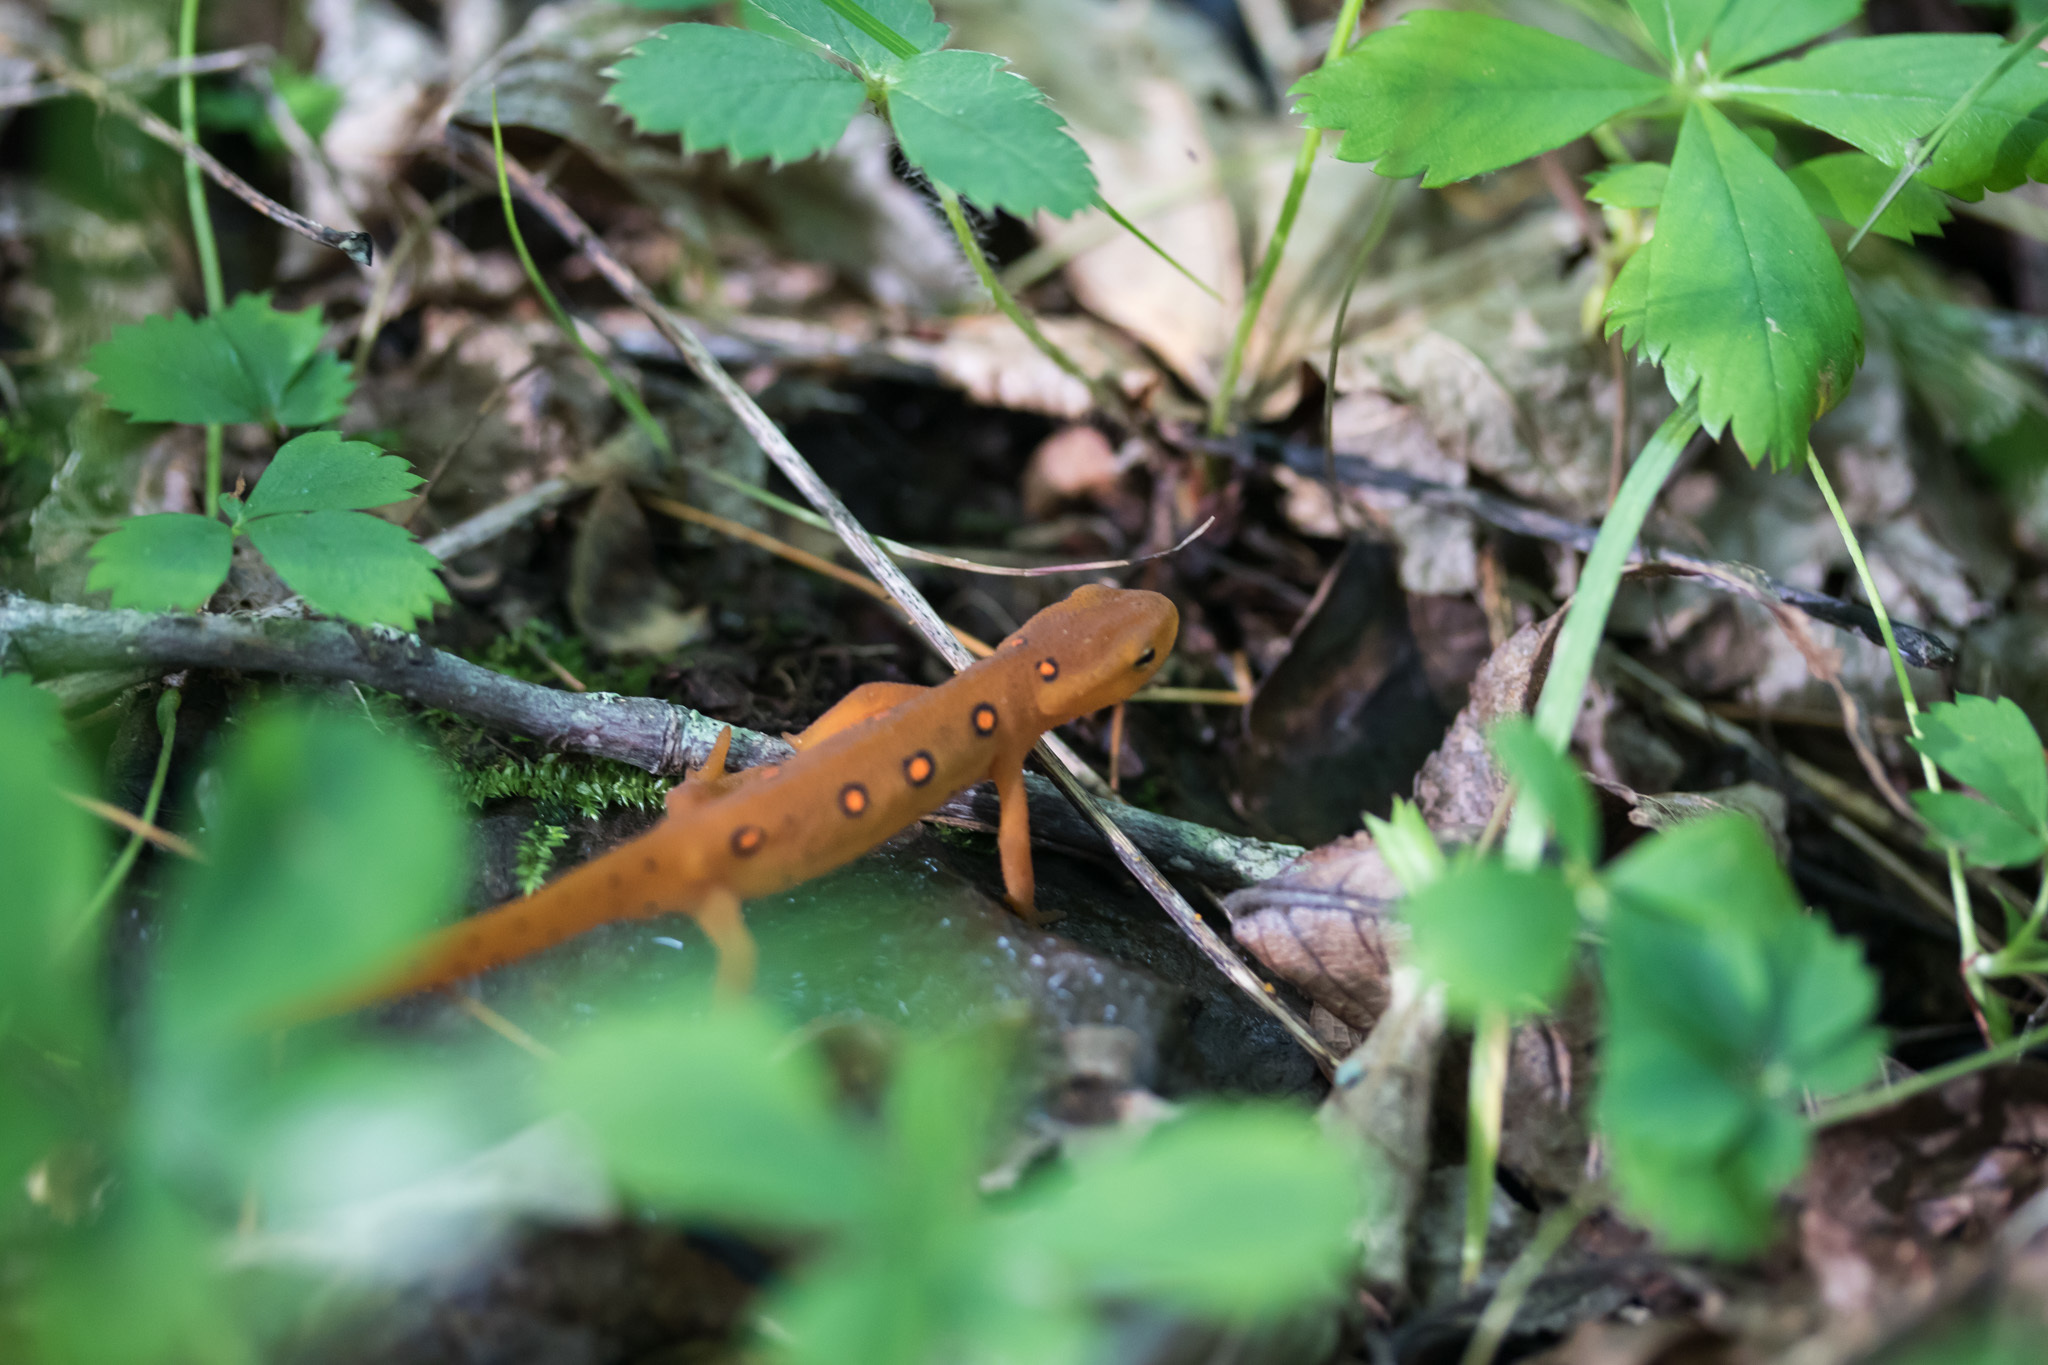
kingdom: Animalia
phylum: Chordata
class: Amphibia
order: Caudata
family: Salamandridae
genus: Notophthalmus
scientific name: Notophthalmus viridescens
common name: Eastern newt
